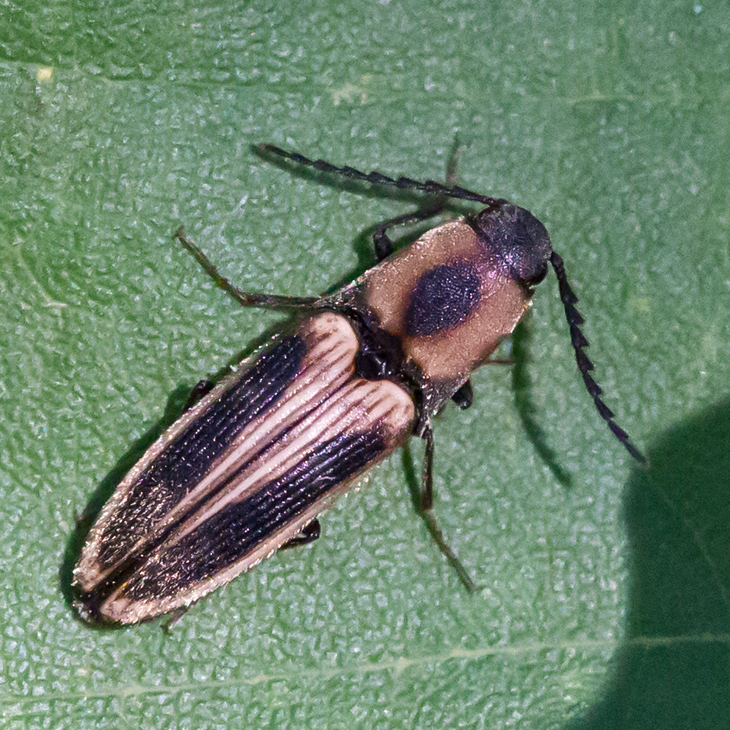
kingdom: Animalia
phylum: Arthropoda
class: Insecta
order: Coleoptera
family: Elateridae
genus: Megapenthes
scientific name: Megapenthes
